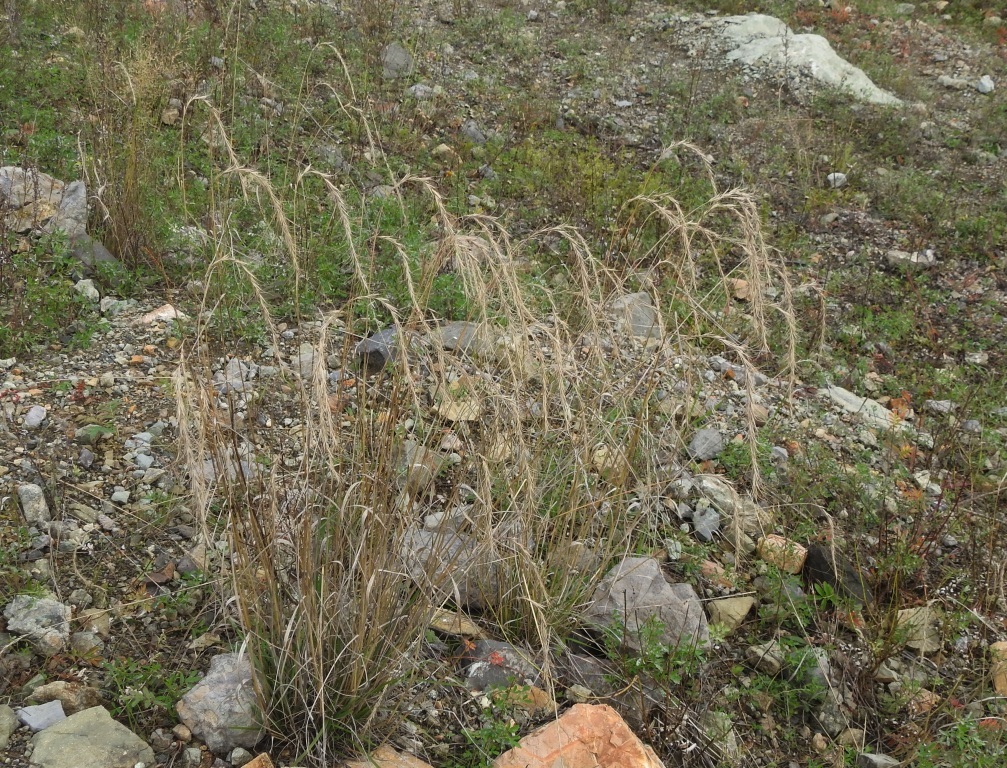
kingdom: Plantae
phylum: Tracheophyta
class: Liliopsida
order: Poales
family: Poaceae
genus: Elymus
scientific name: Elymus sibiricus
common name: Siberian wildrye
